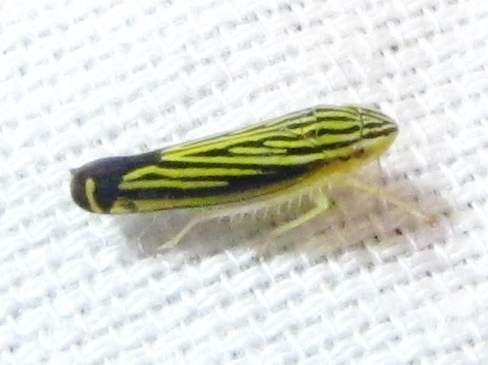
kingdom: Animalia
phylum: Arthropoda
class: Insecta
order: Hemiptera
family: Cicadellidae
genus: Sibovia
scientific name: Sibovia occatoria
